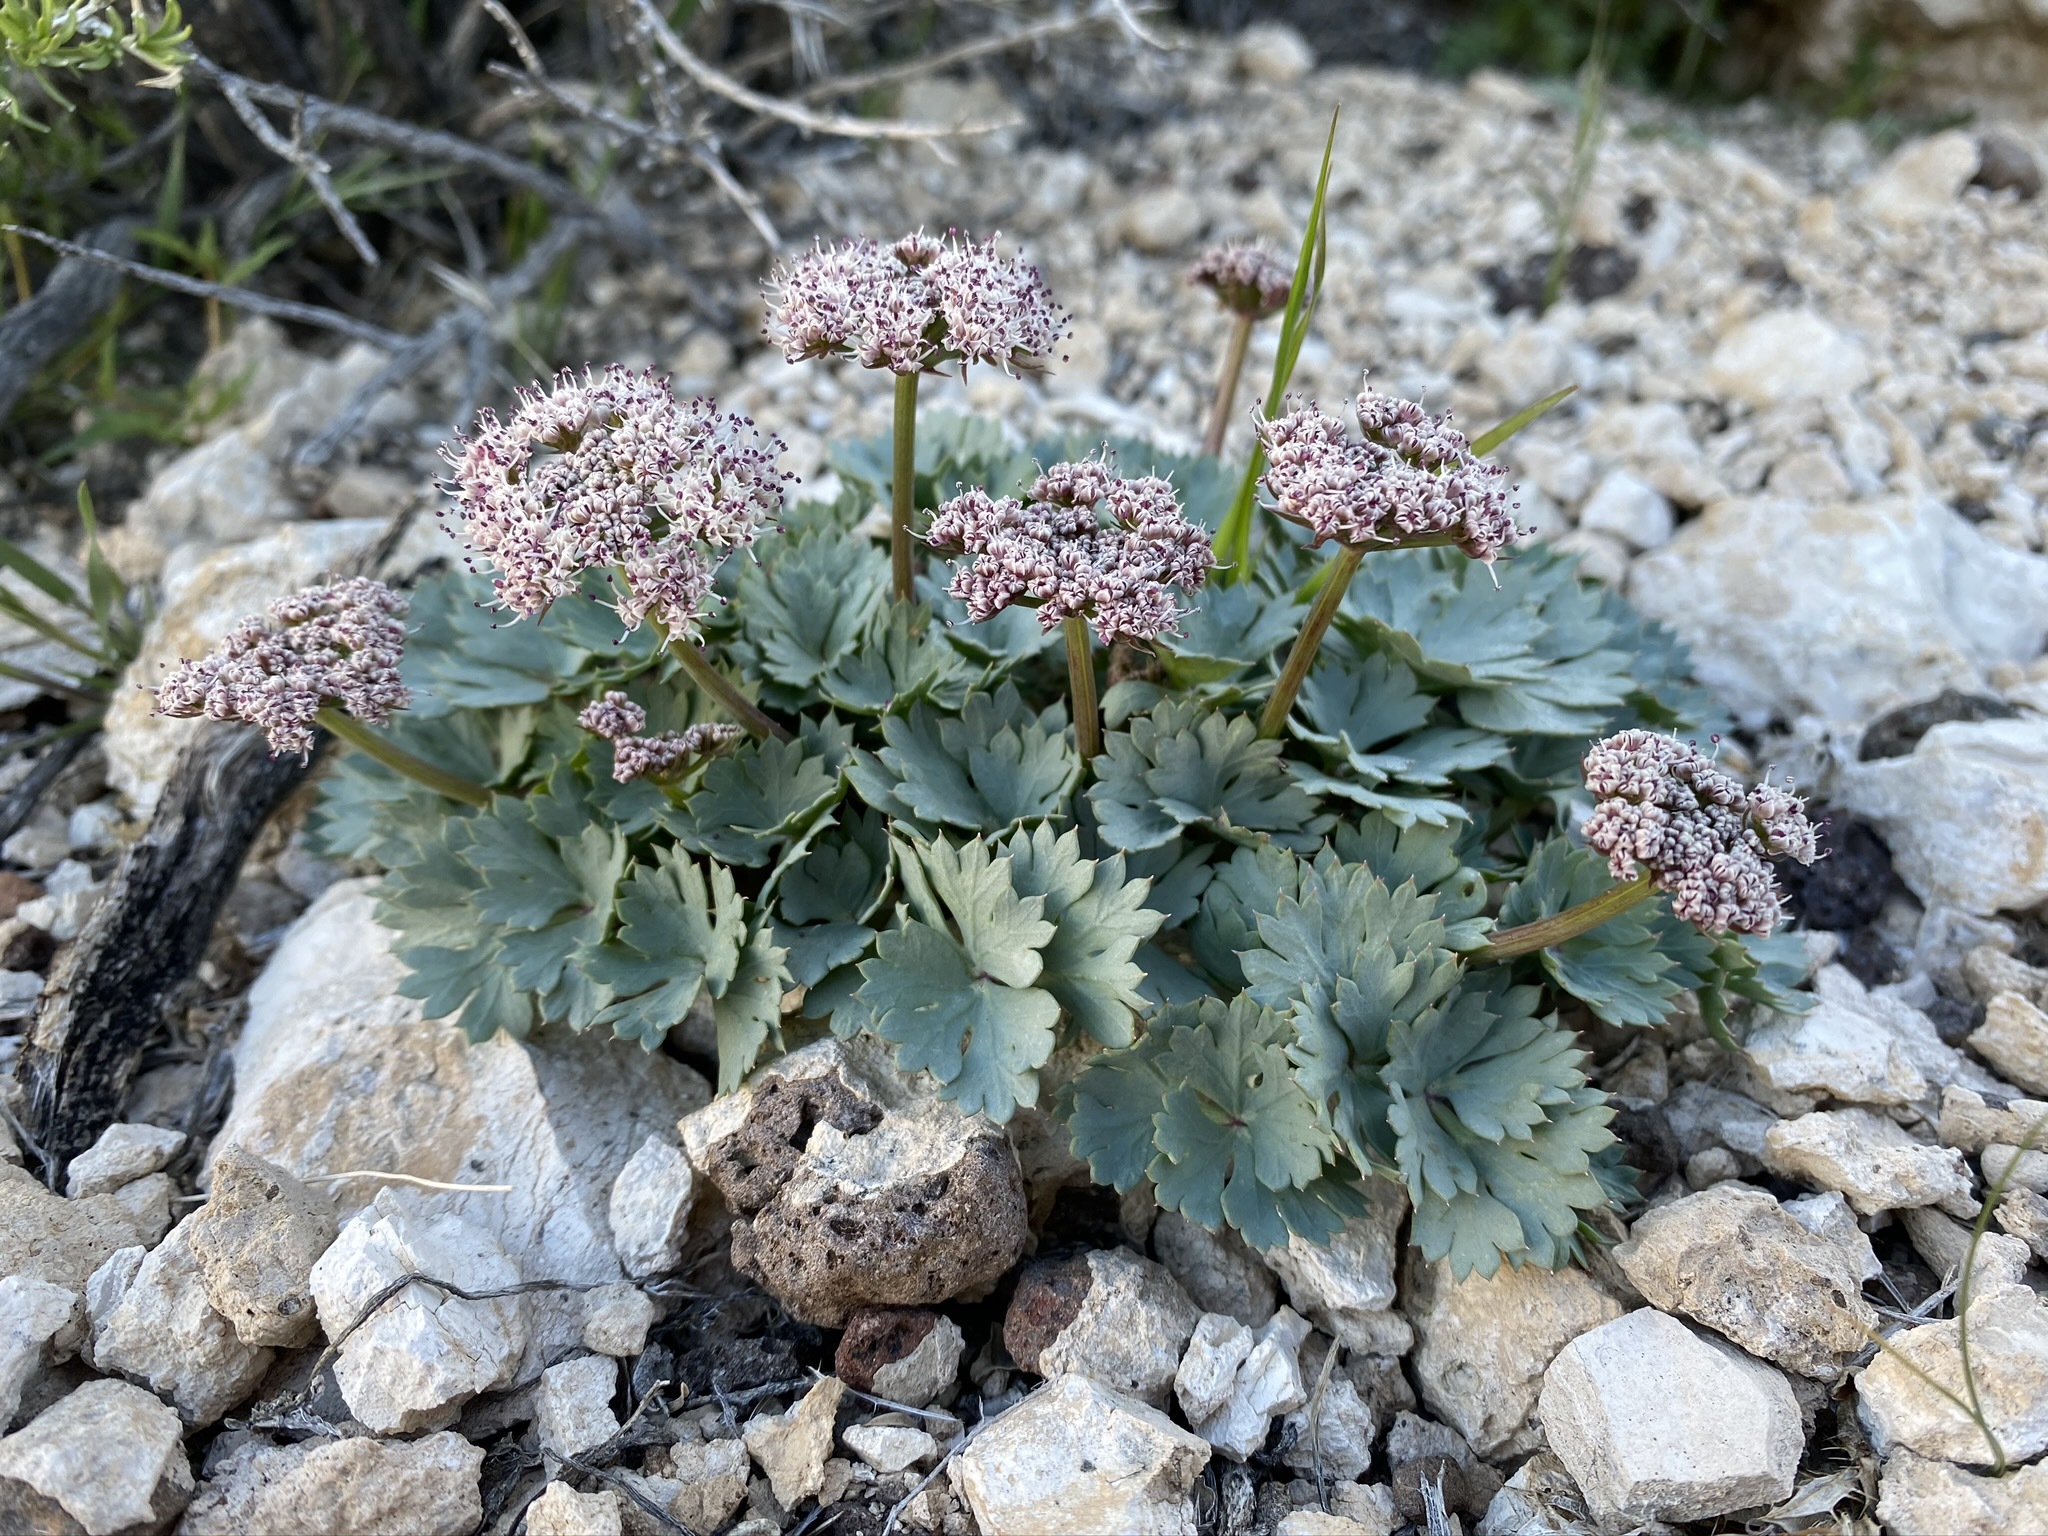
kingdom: Plantae
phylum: Tracheophyta
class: Magnoliopsida
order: Apiales
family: Apiaceae
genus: Cymopterus
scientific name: Cymopterus gilmanii
